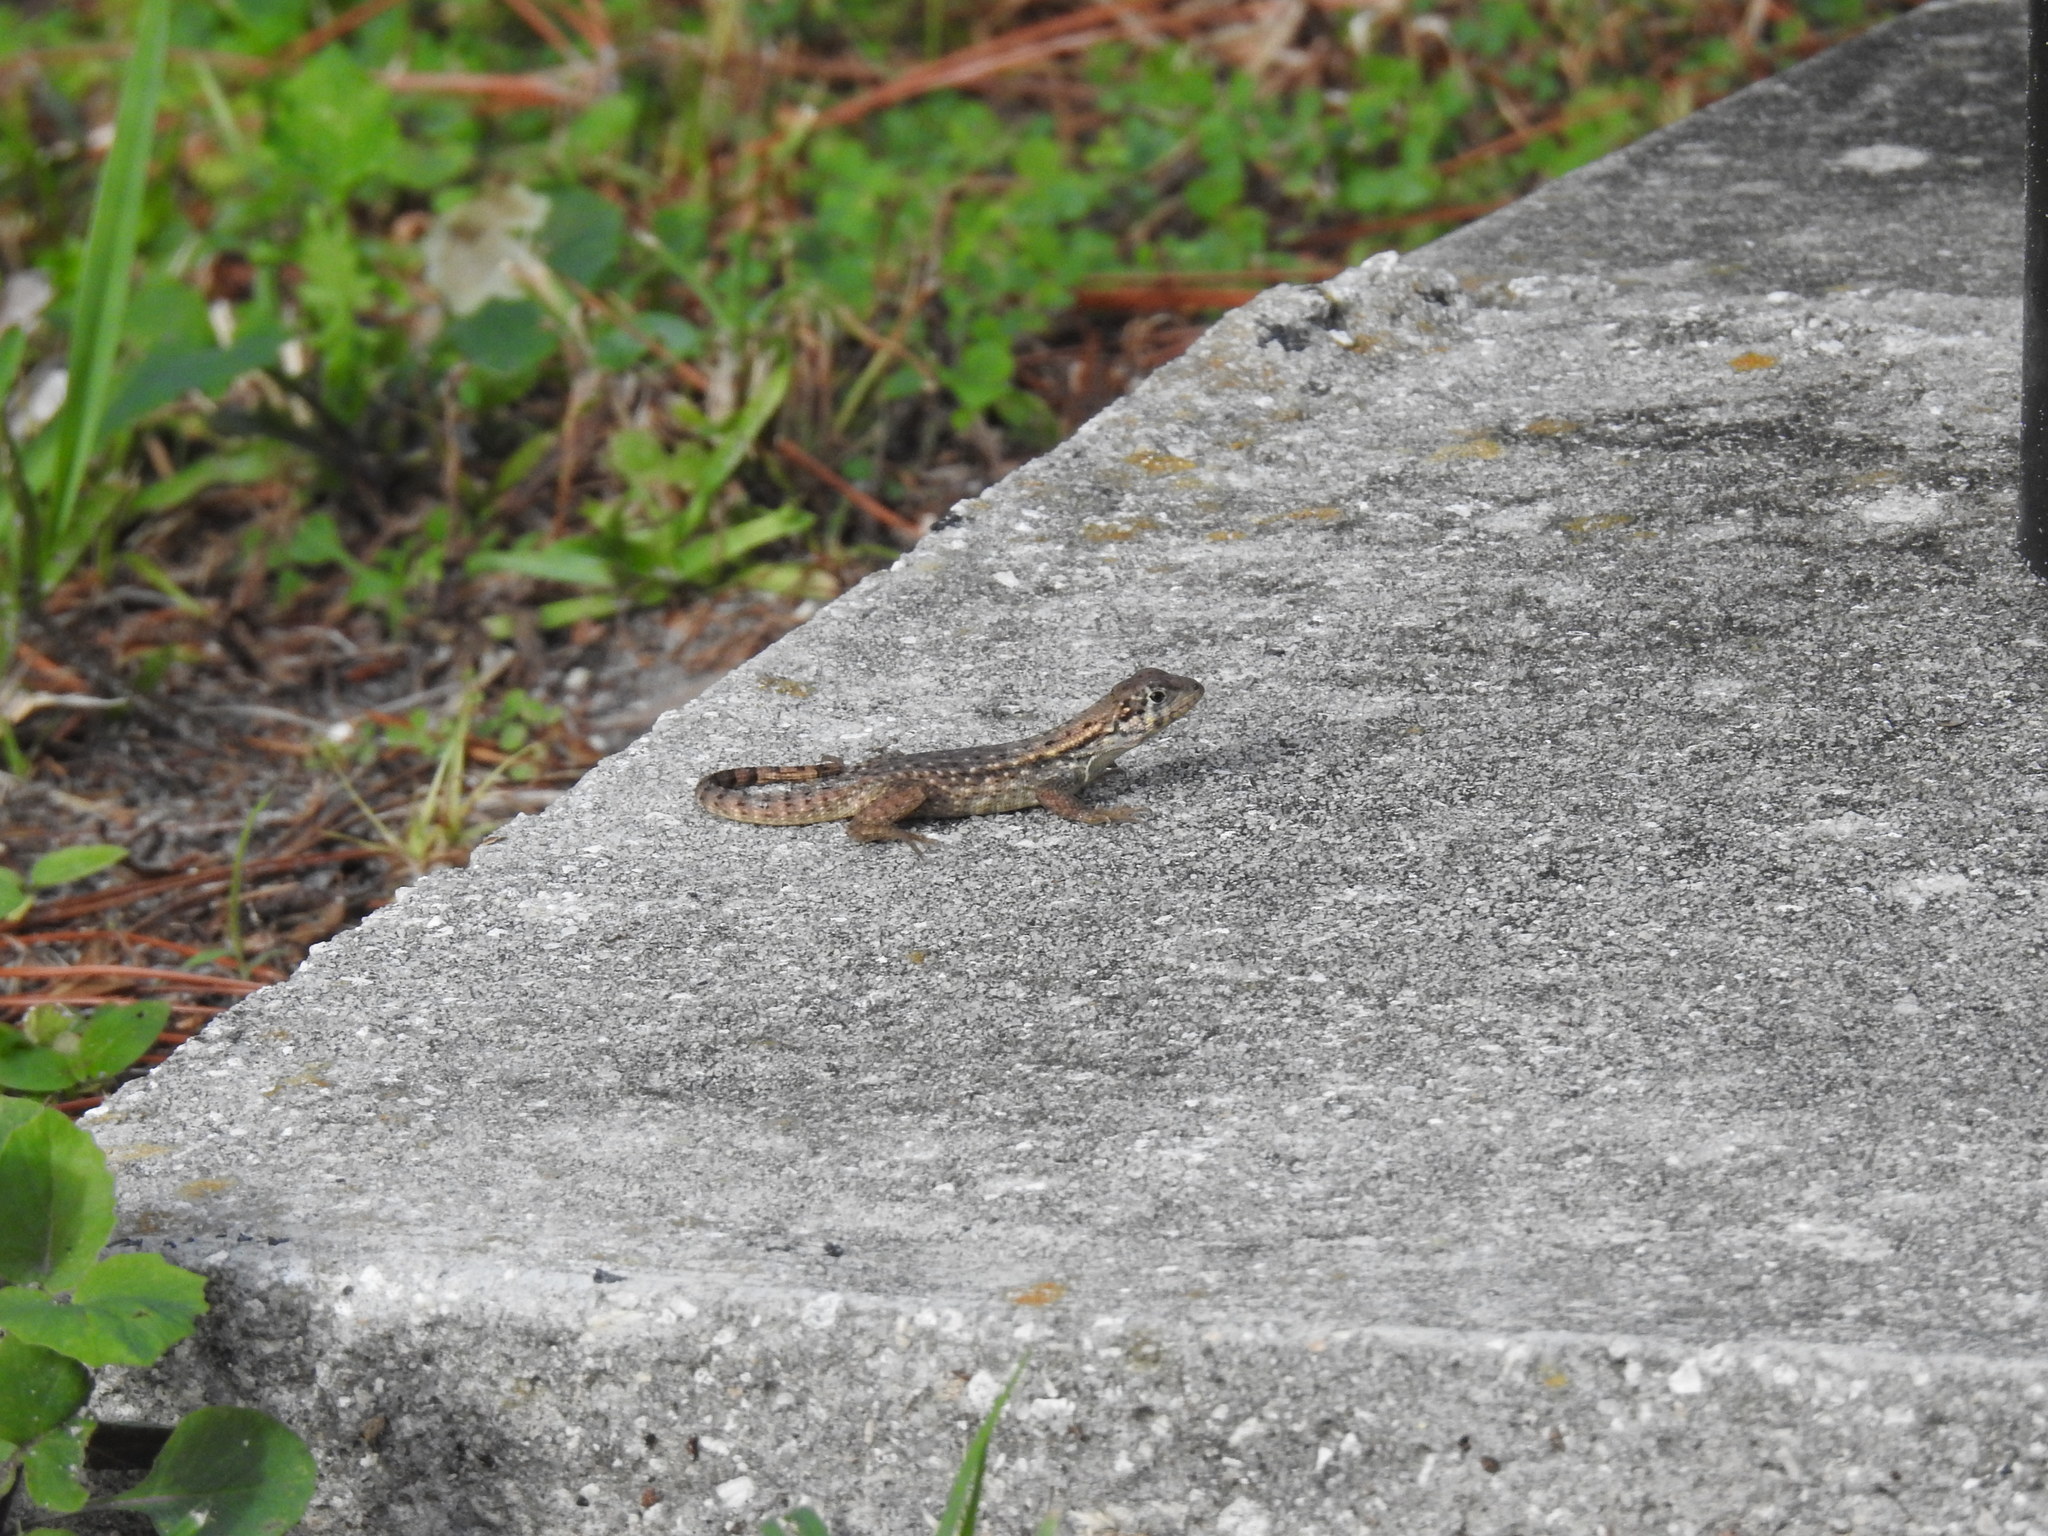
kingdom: Animalia
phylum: Chordata
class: Squamata
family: Leiocephalidae
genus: Leiocephalus
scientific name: Leiocephalus carinatus
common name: Northern curly-tailed lizard
